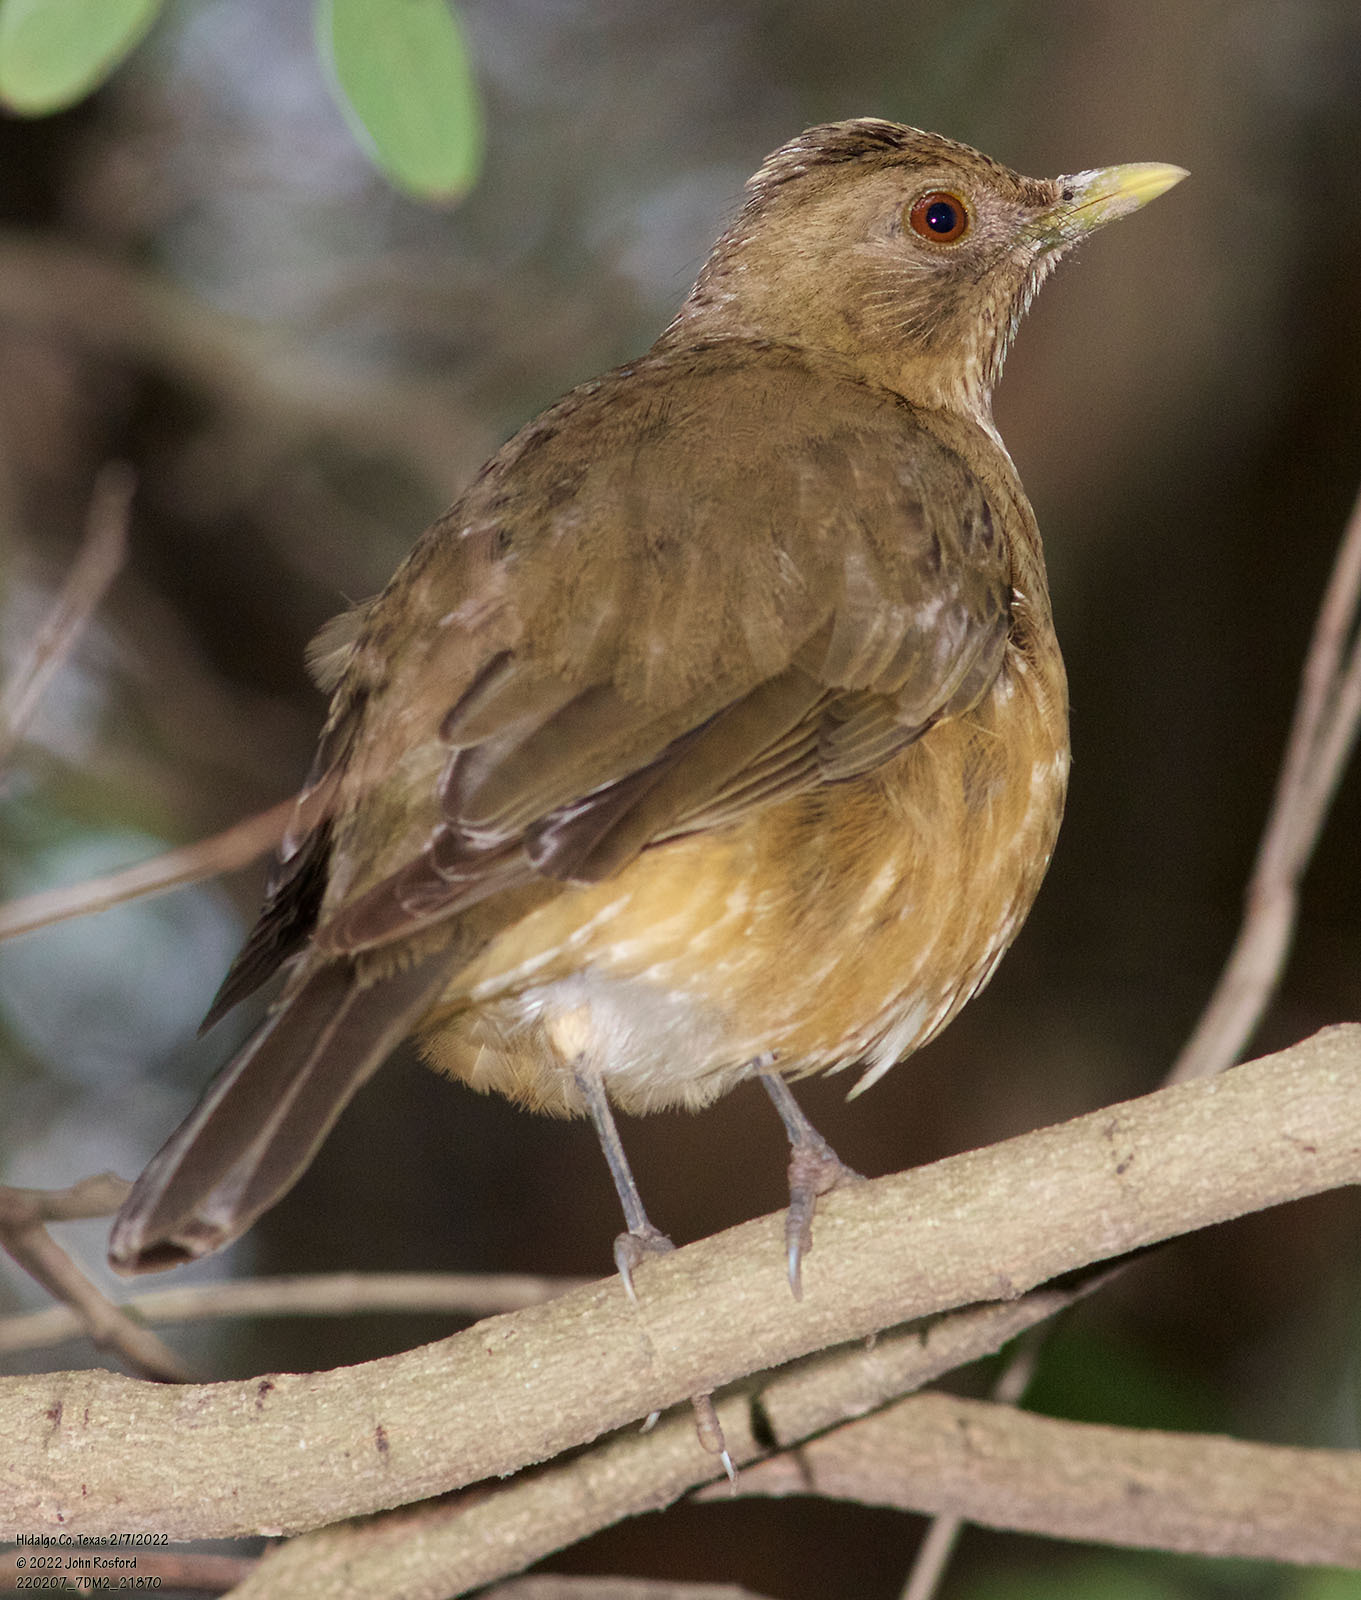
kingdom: Animalia
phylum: Chordata
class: Aves
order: Passeriformes
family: Turdidae
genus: Turdus
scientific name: Turdus grayi
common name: Clay-colored thrush
